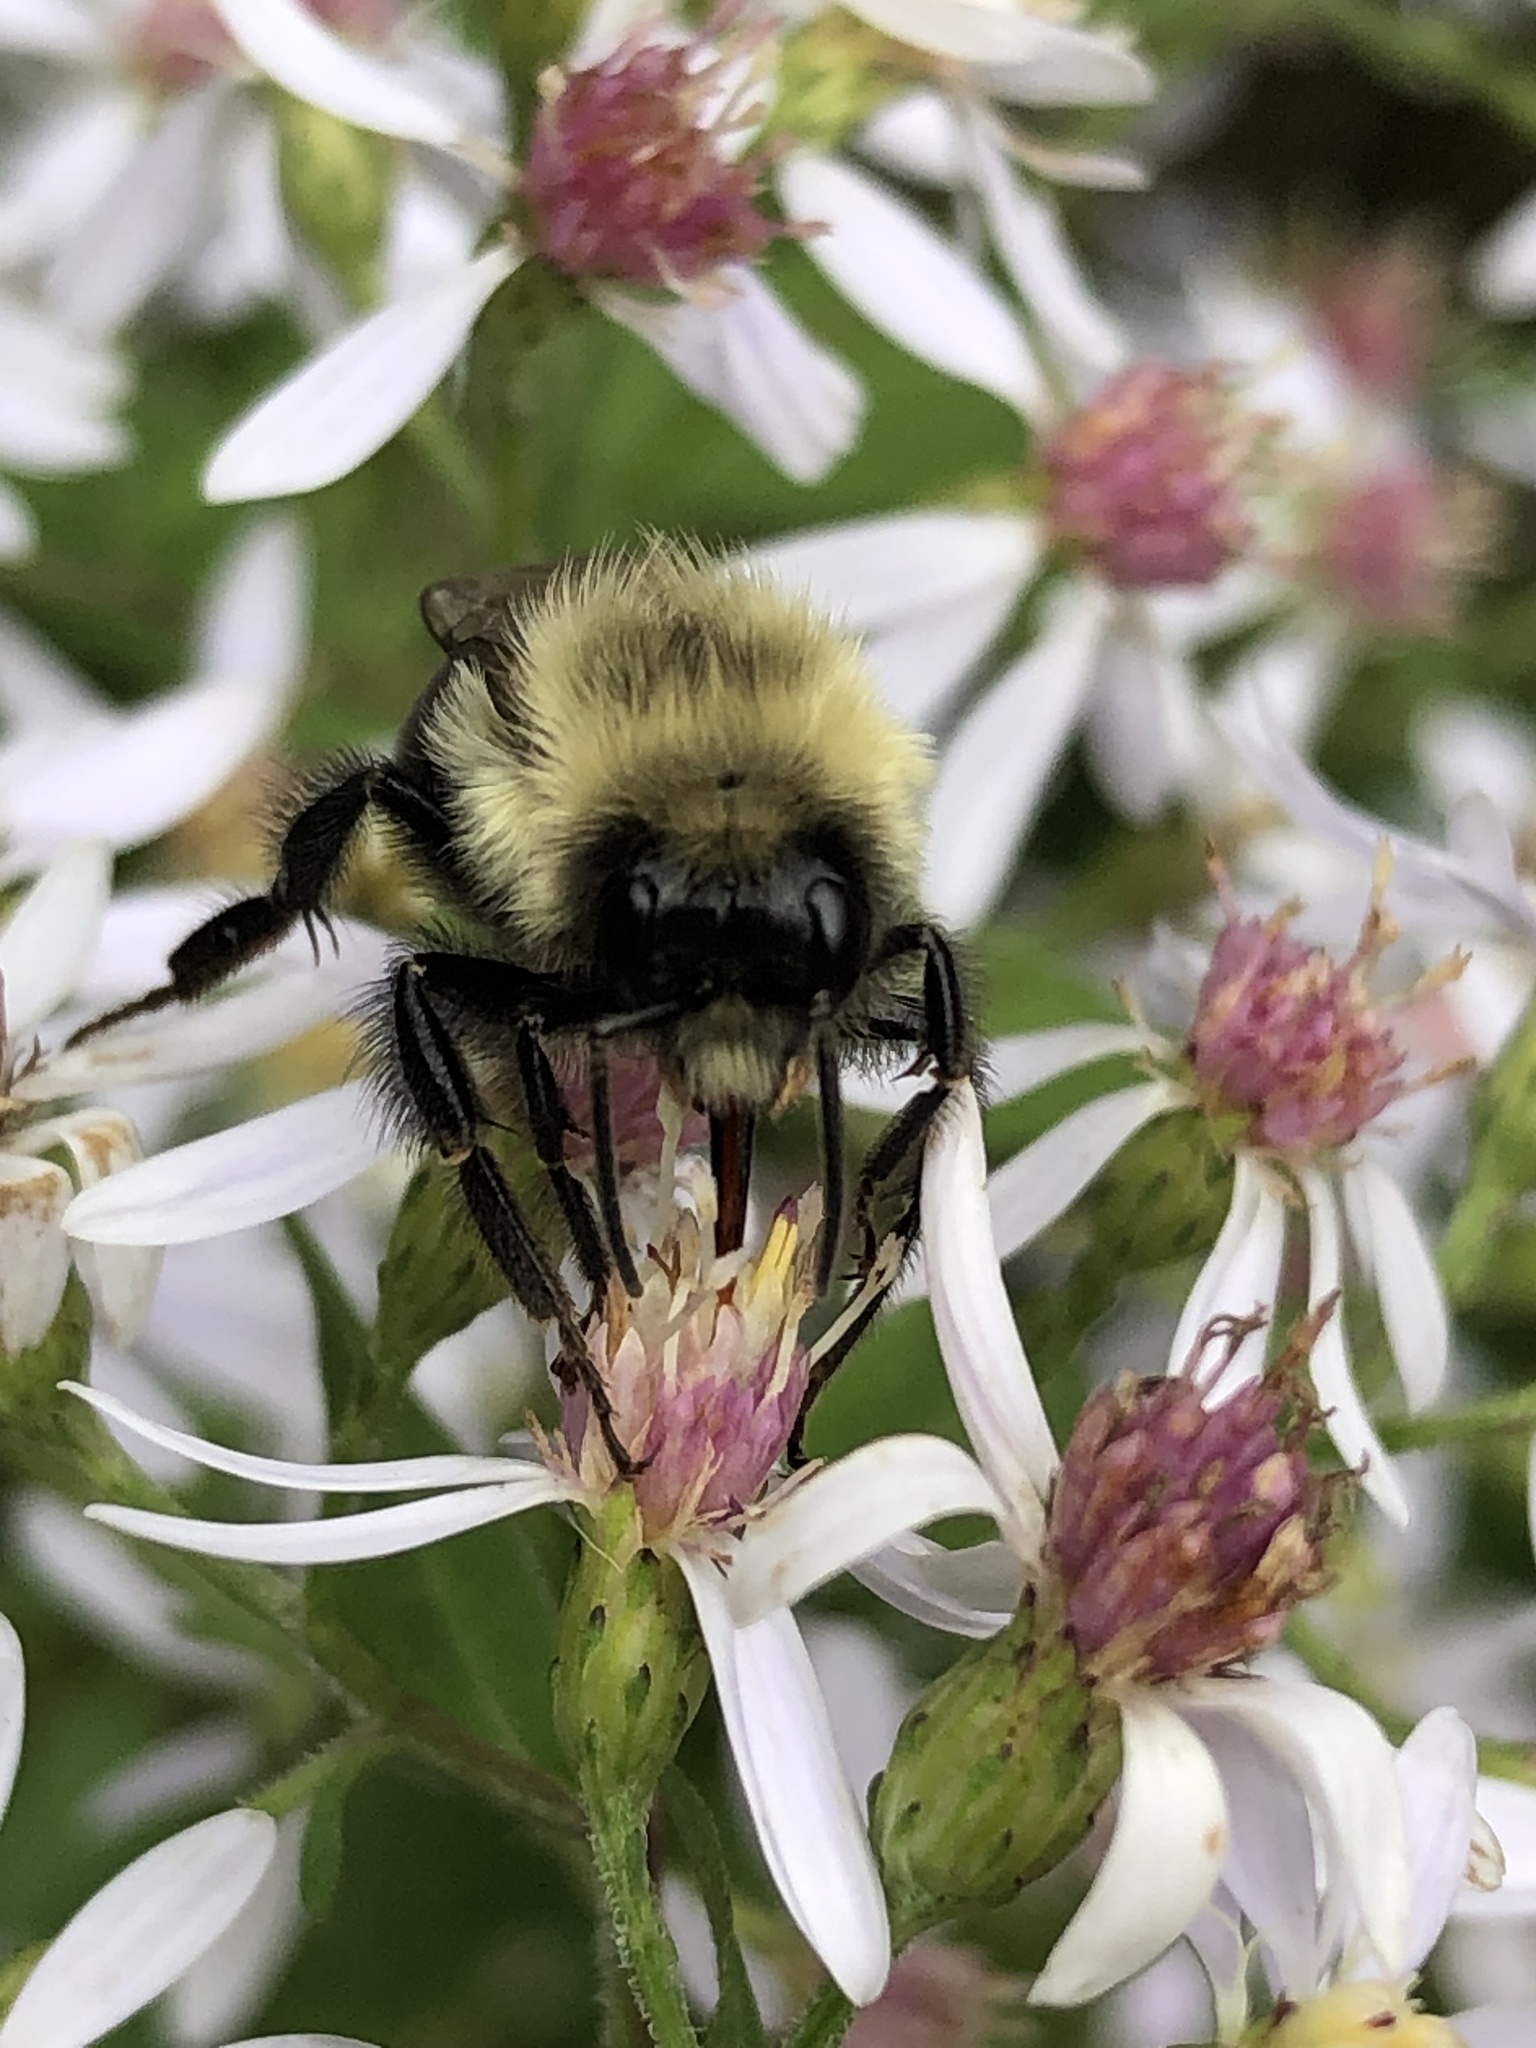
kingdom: Animalia
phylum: Arthropoda
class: Insecta
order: Hymenoptera
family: Apidae
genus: Bombus
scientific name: Bombus impatiens
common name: Common eastern bumble bee
